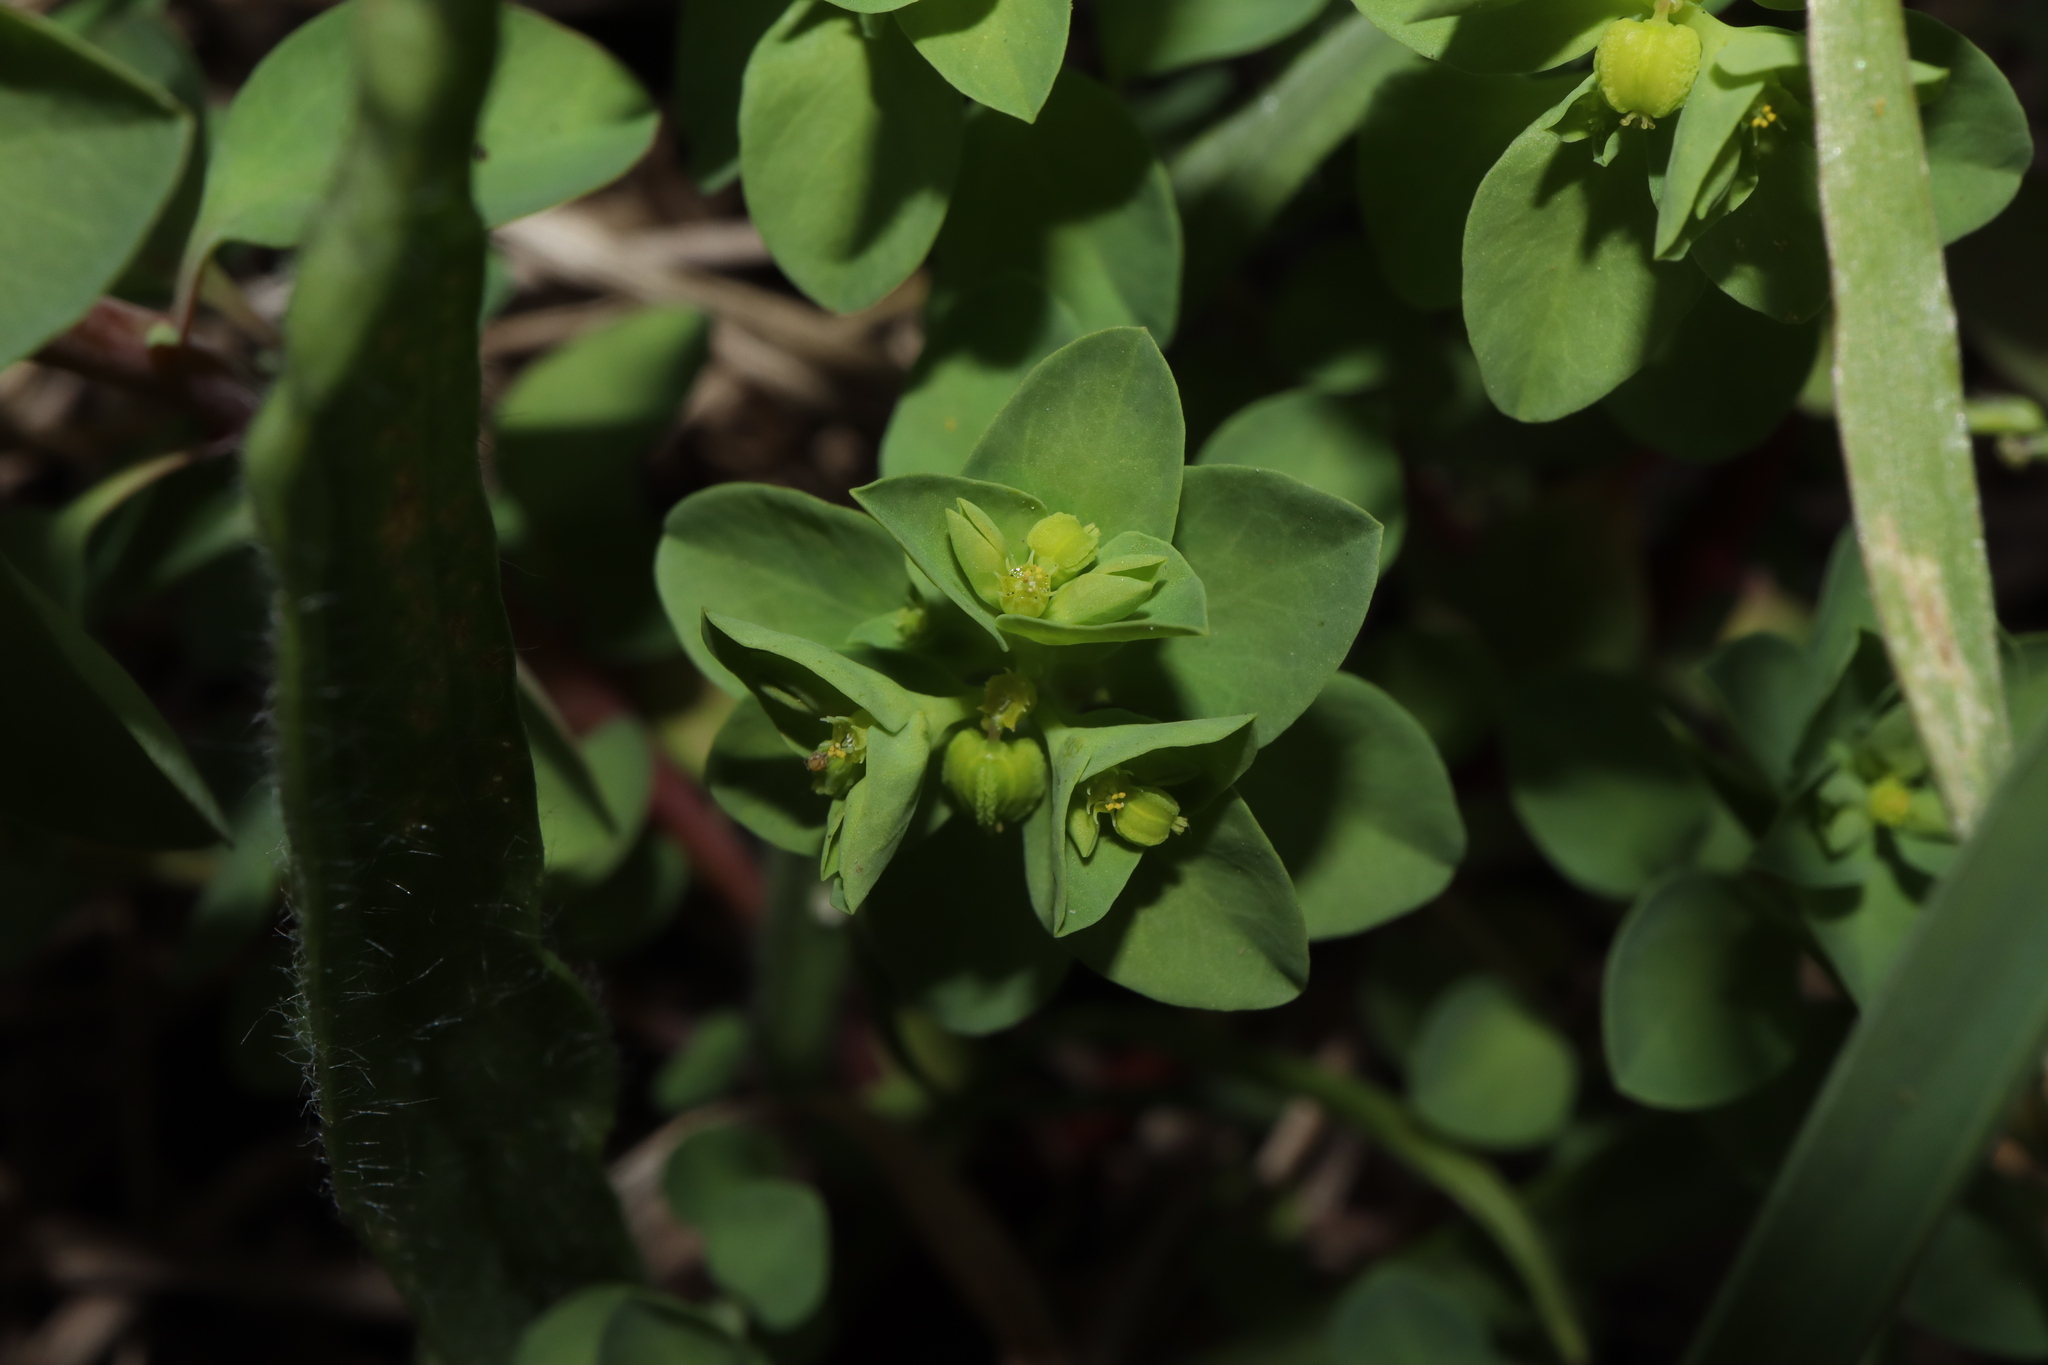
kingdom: Plantae
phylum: Tracheophyta
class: Magnoliopsida
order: Malpighiales
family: Euphorbiaceae
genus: Euphorbia
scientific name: Euphorbia peplus
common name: Petty spurge
